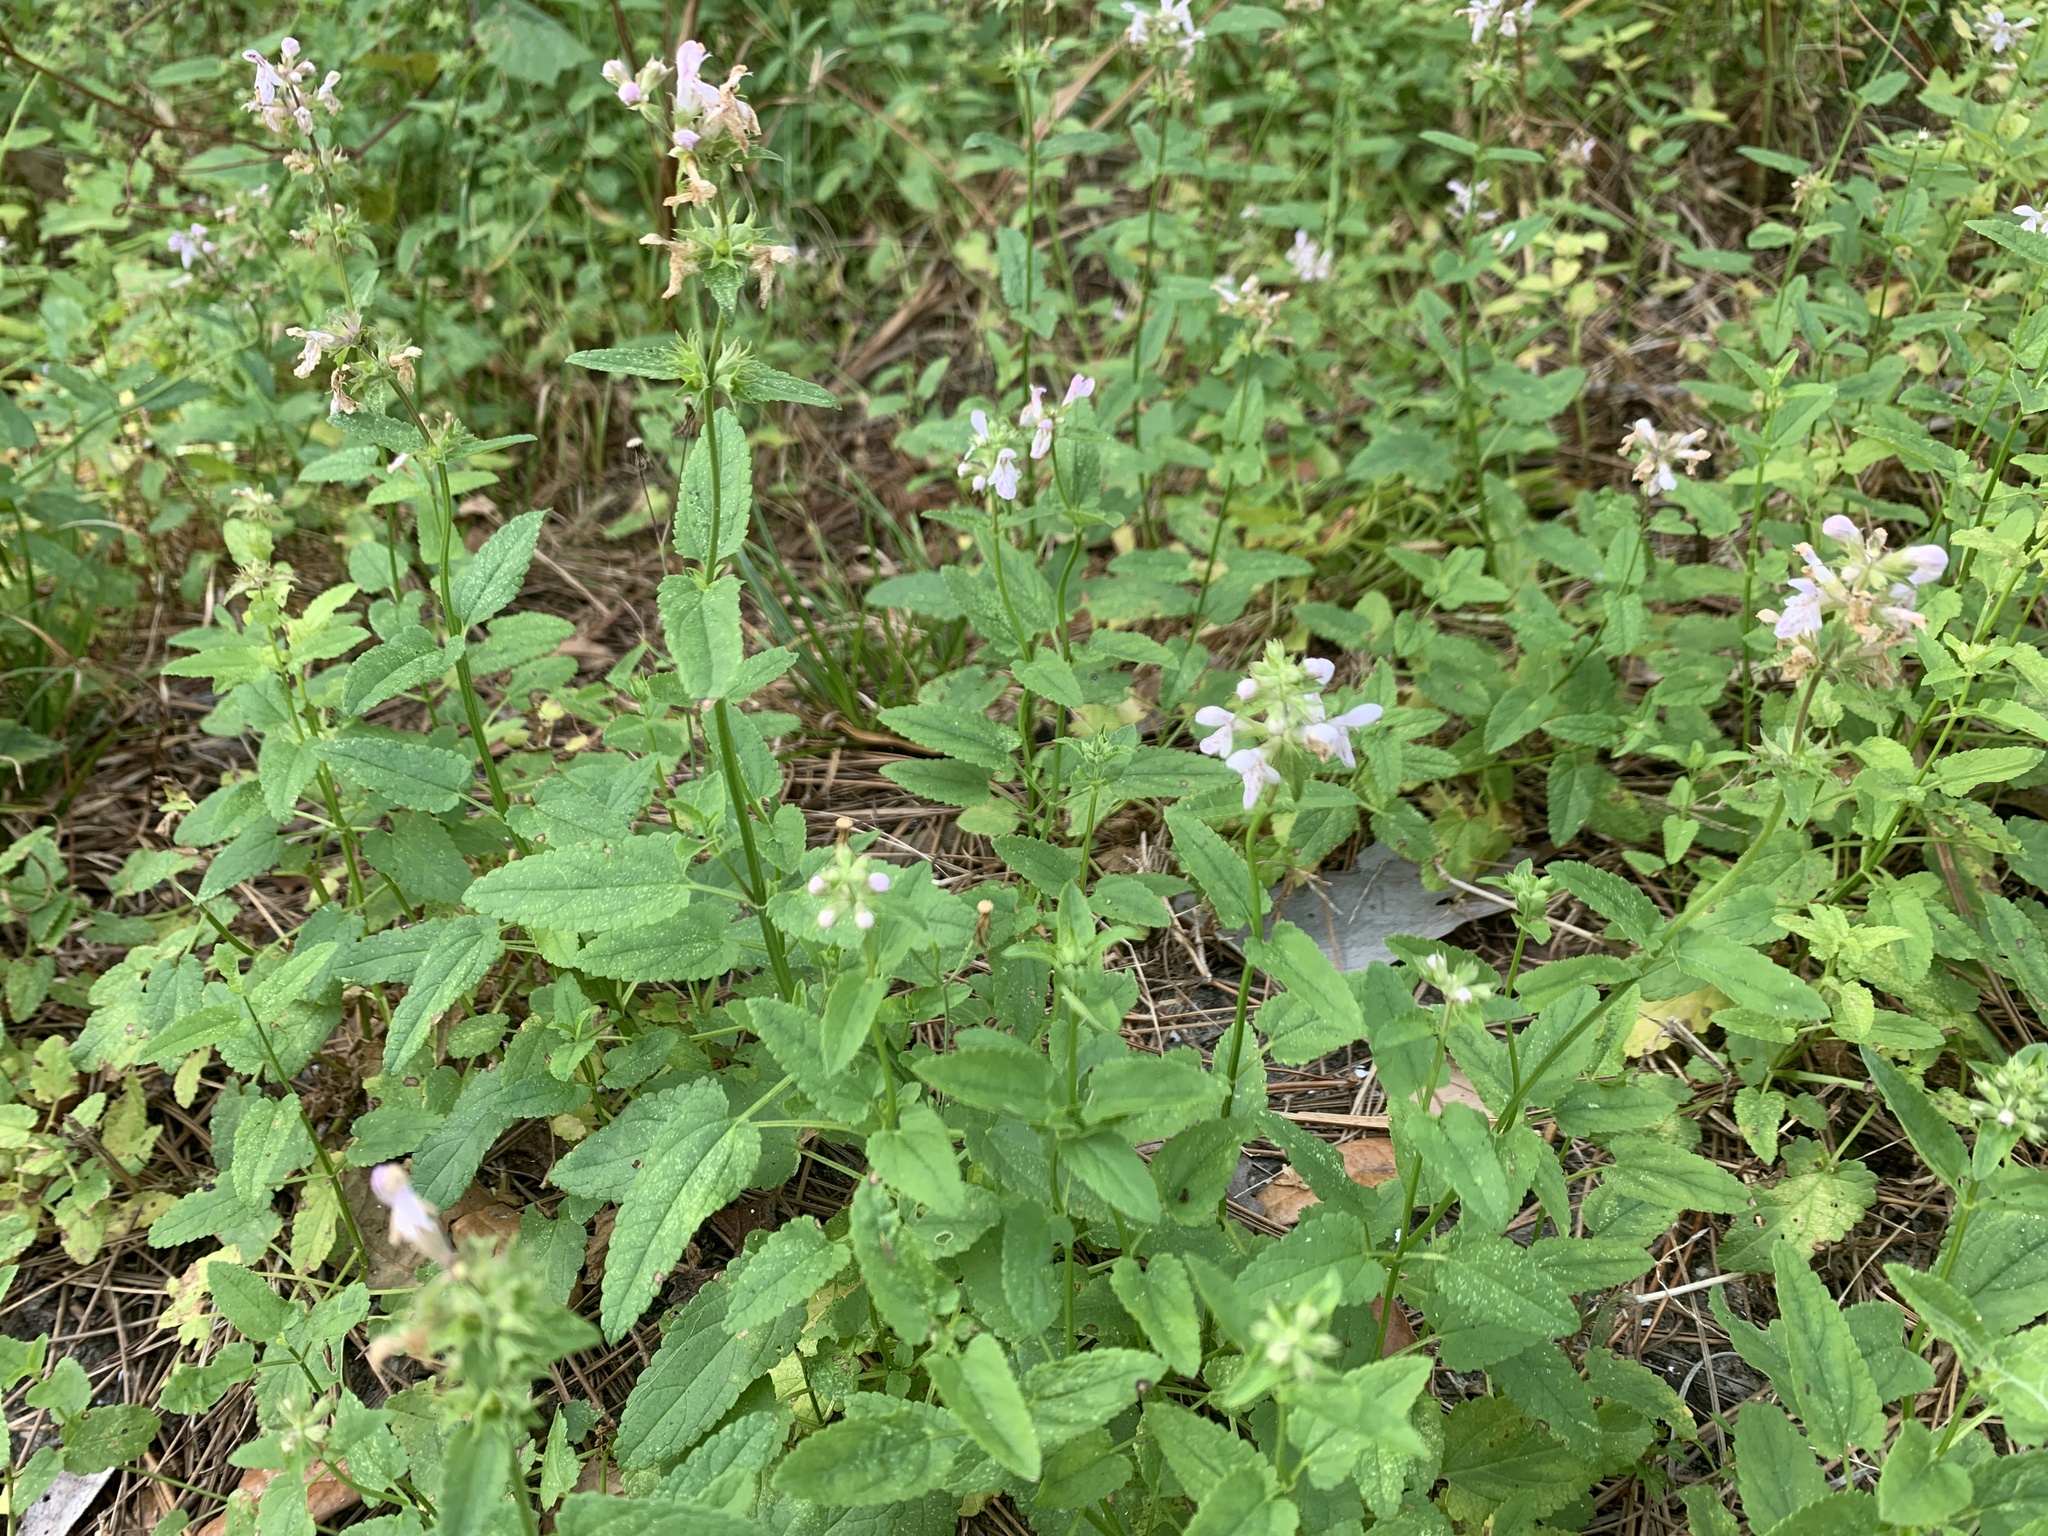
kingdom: Plantae
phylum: Tracheophyta
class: Magnoliopsida
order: Lamiales
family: Lamiaceae
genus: Stachys
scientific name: Stachys floridana
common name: Florida betony
